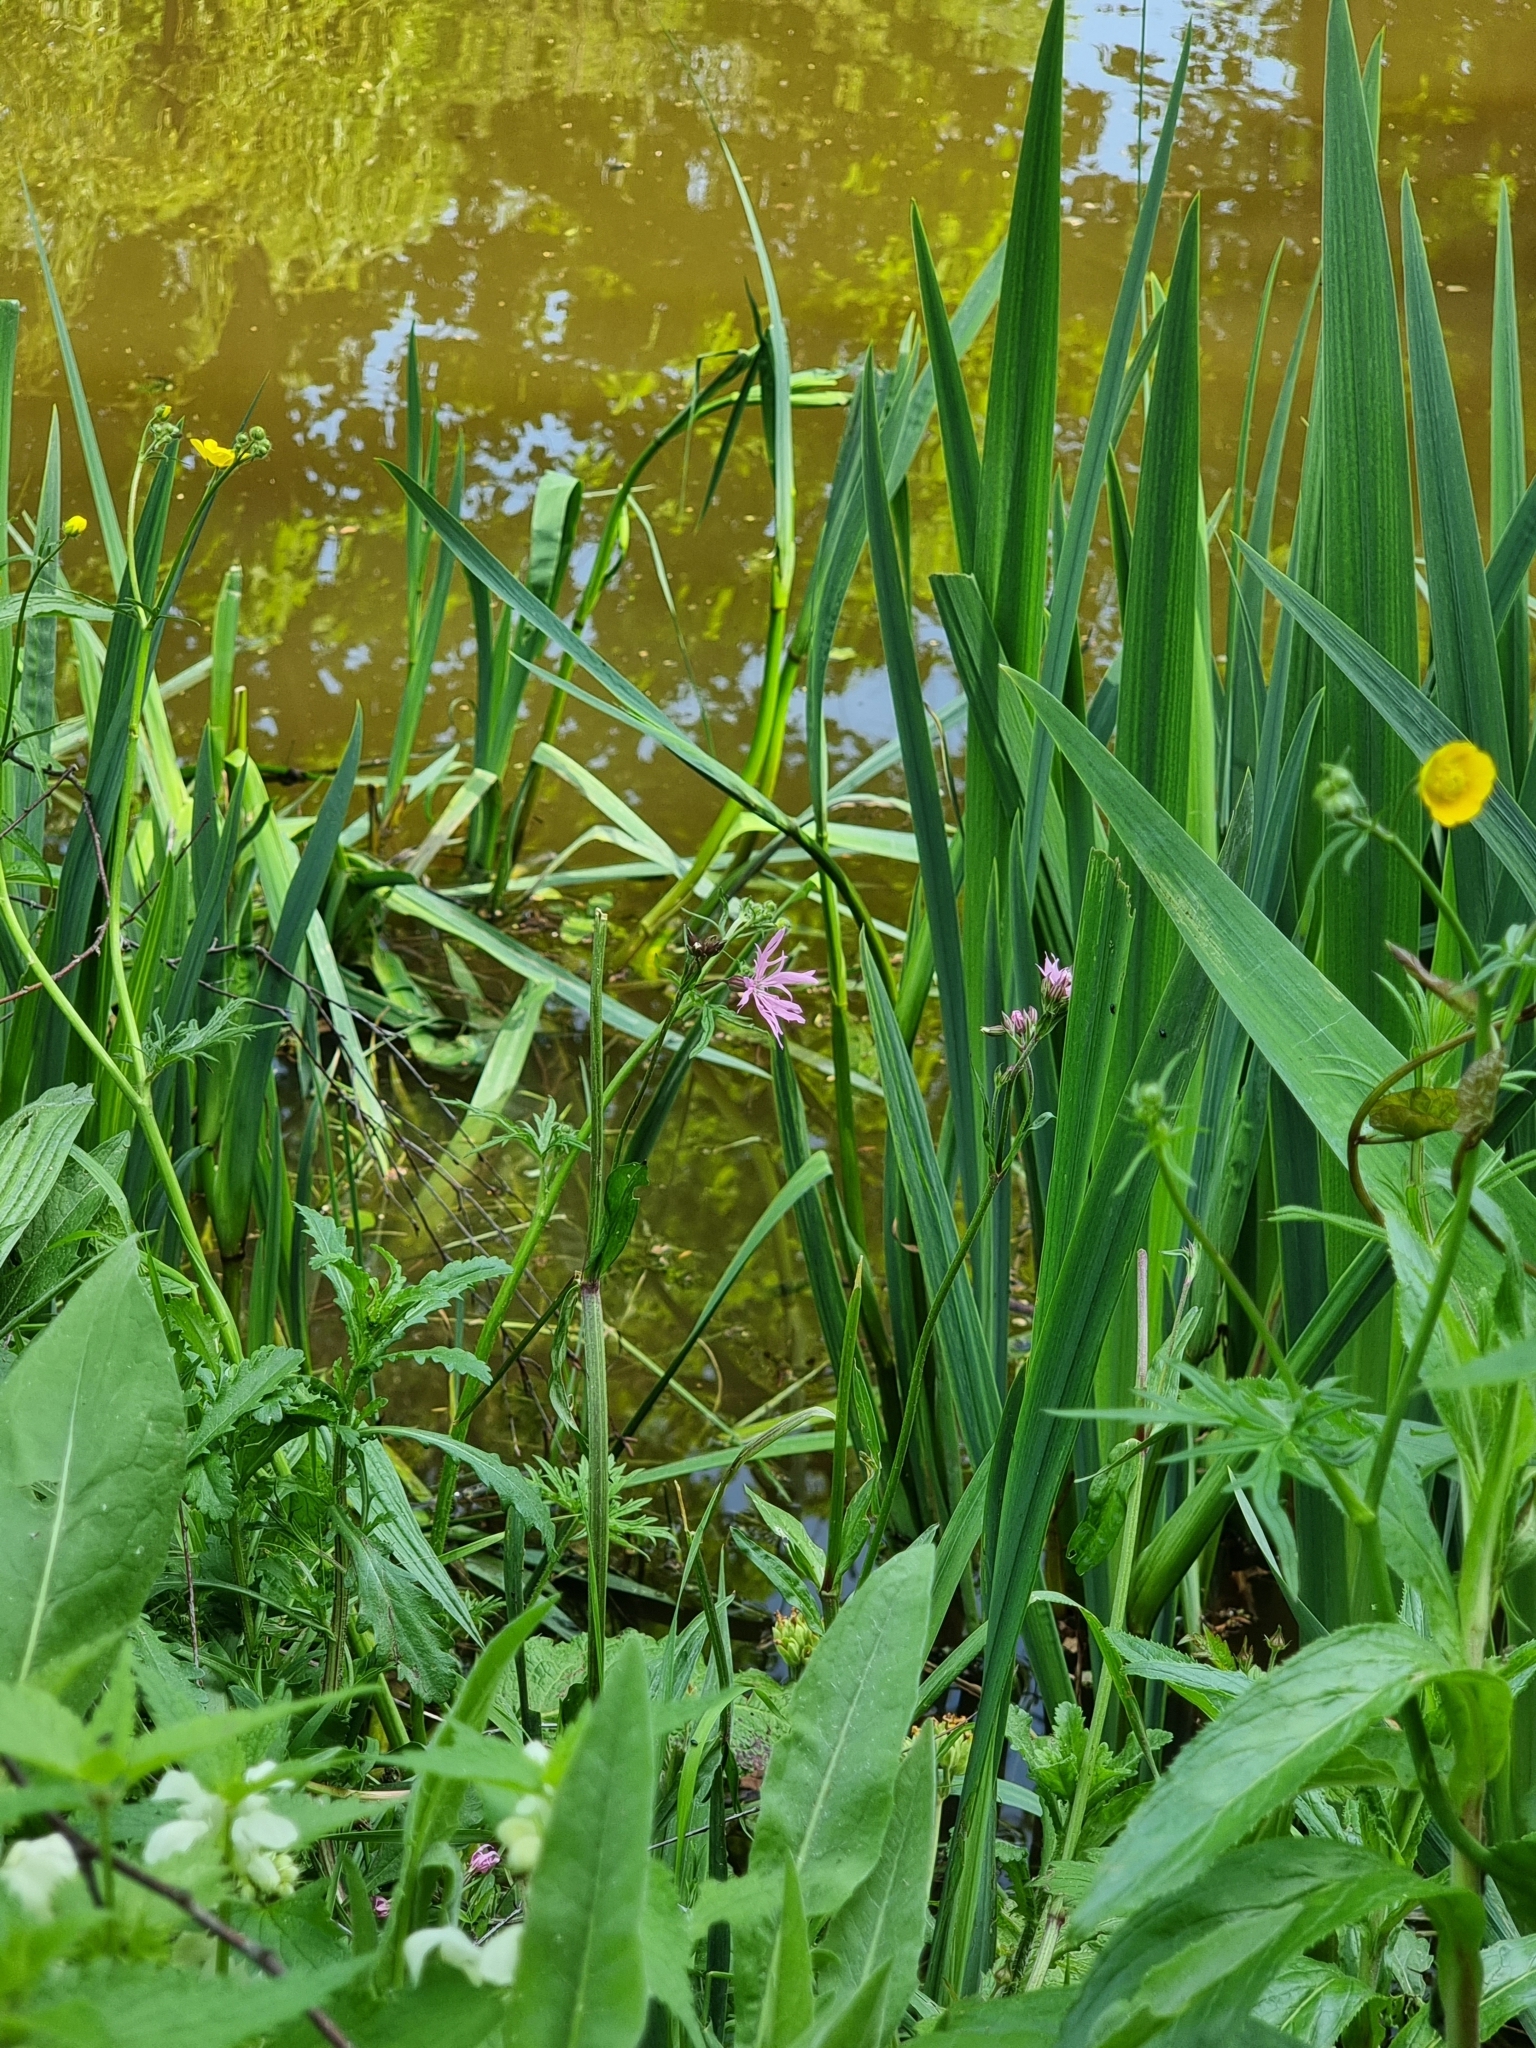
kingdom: Plantae
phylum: Tracheophyta
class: Magnoliopsida
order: Caryophyllales
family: Caryophyllaceae
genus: Silene
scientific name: Silene flos-cuculi
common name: Ragged-robin
